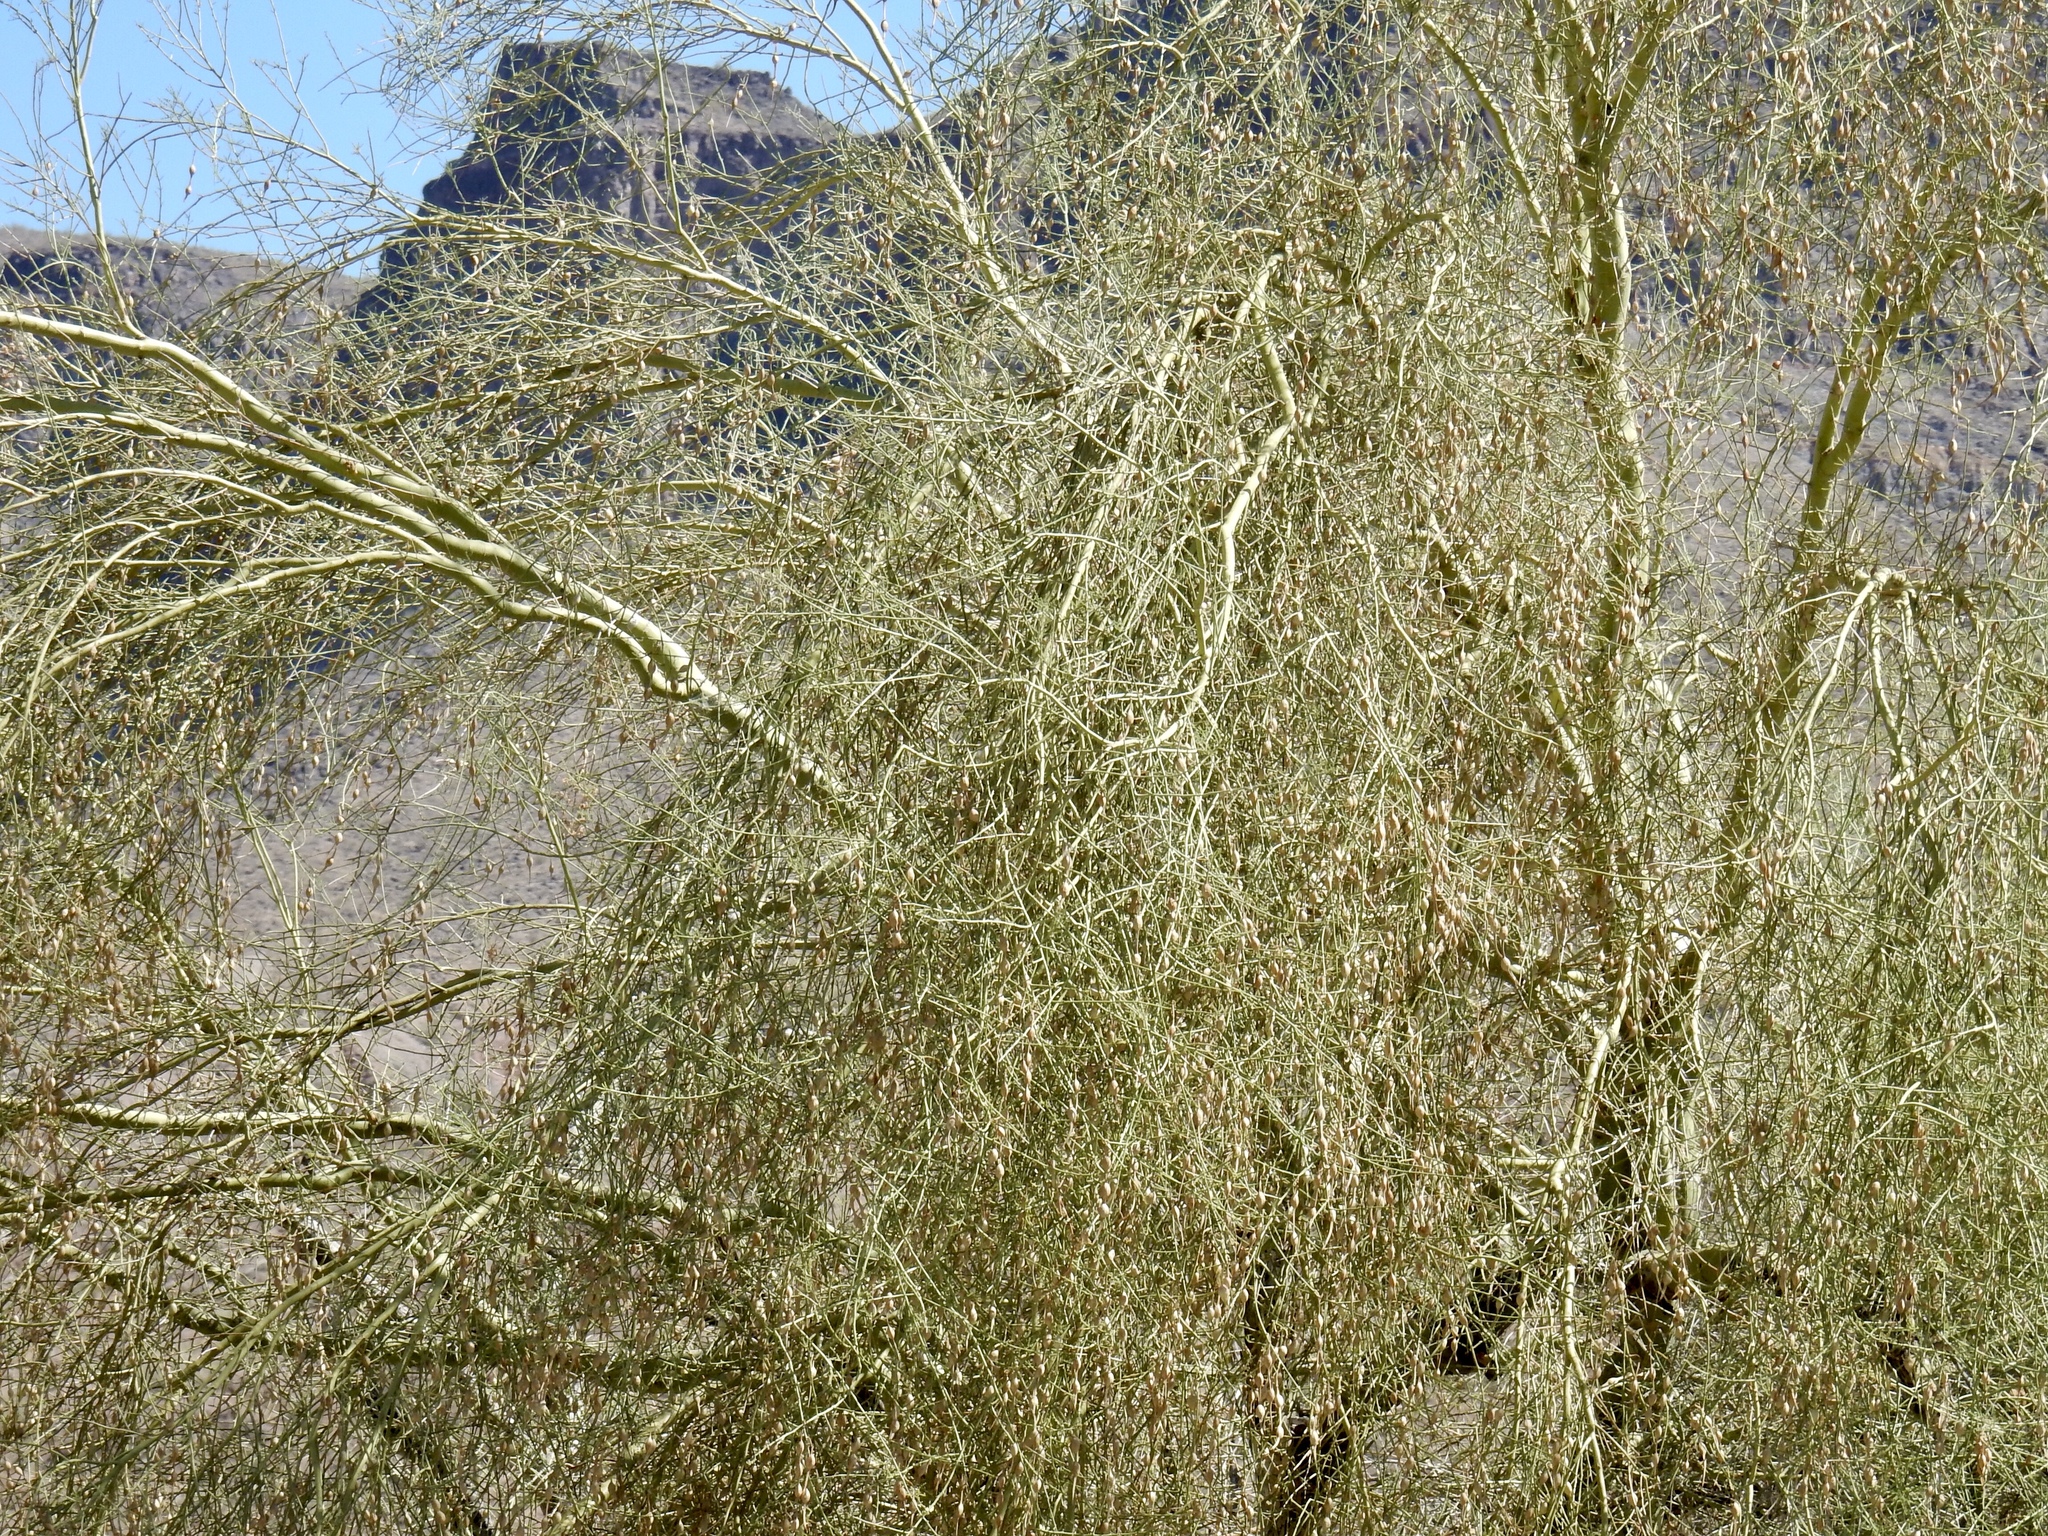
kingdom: Plantae
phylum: Tracheophyta
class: Magnoliopsida
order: Fabales
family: Fabaceae
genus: Parkinsonia
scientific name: Parkinsonia florida
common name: Blue paloverde
